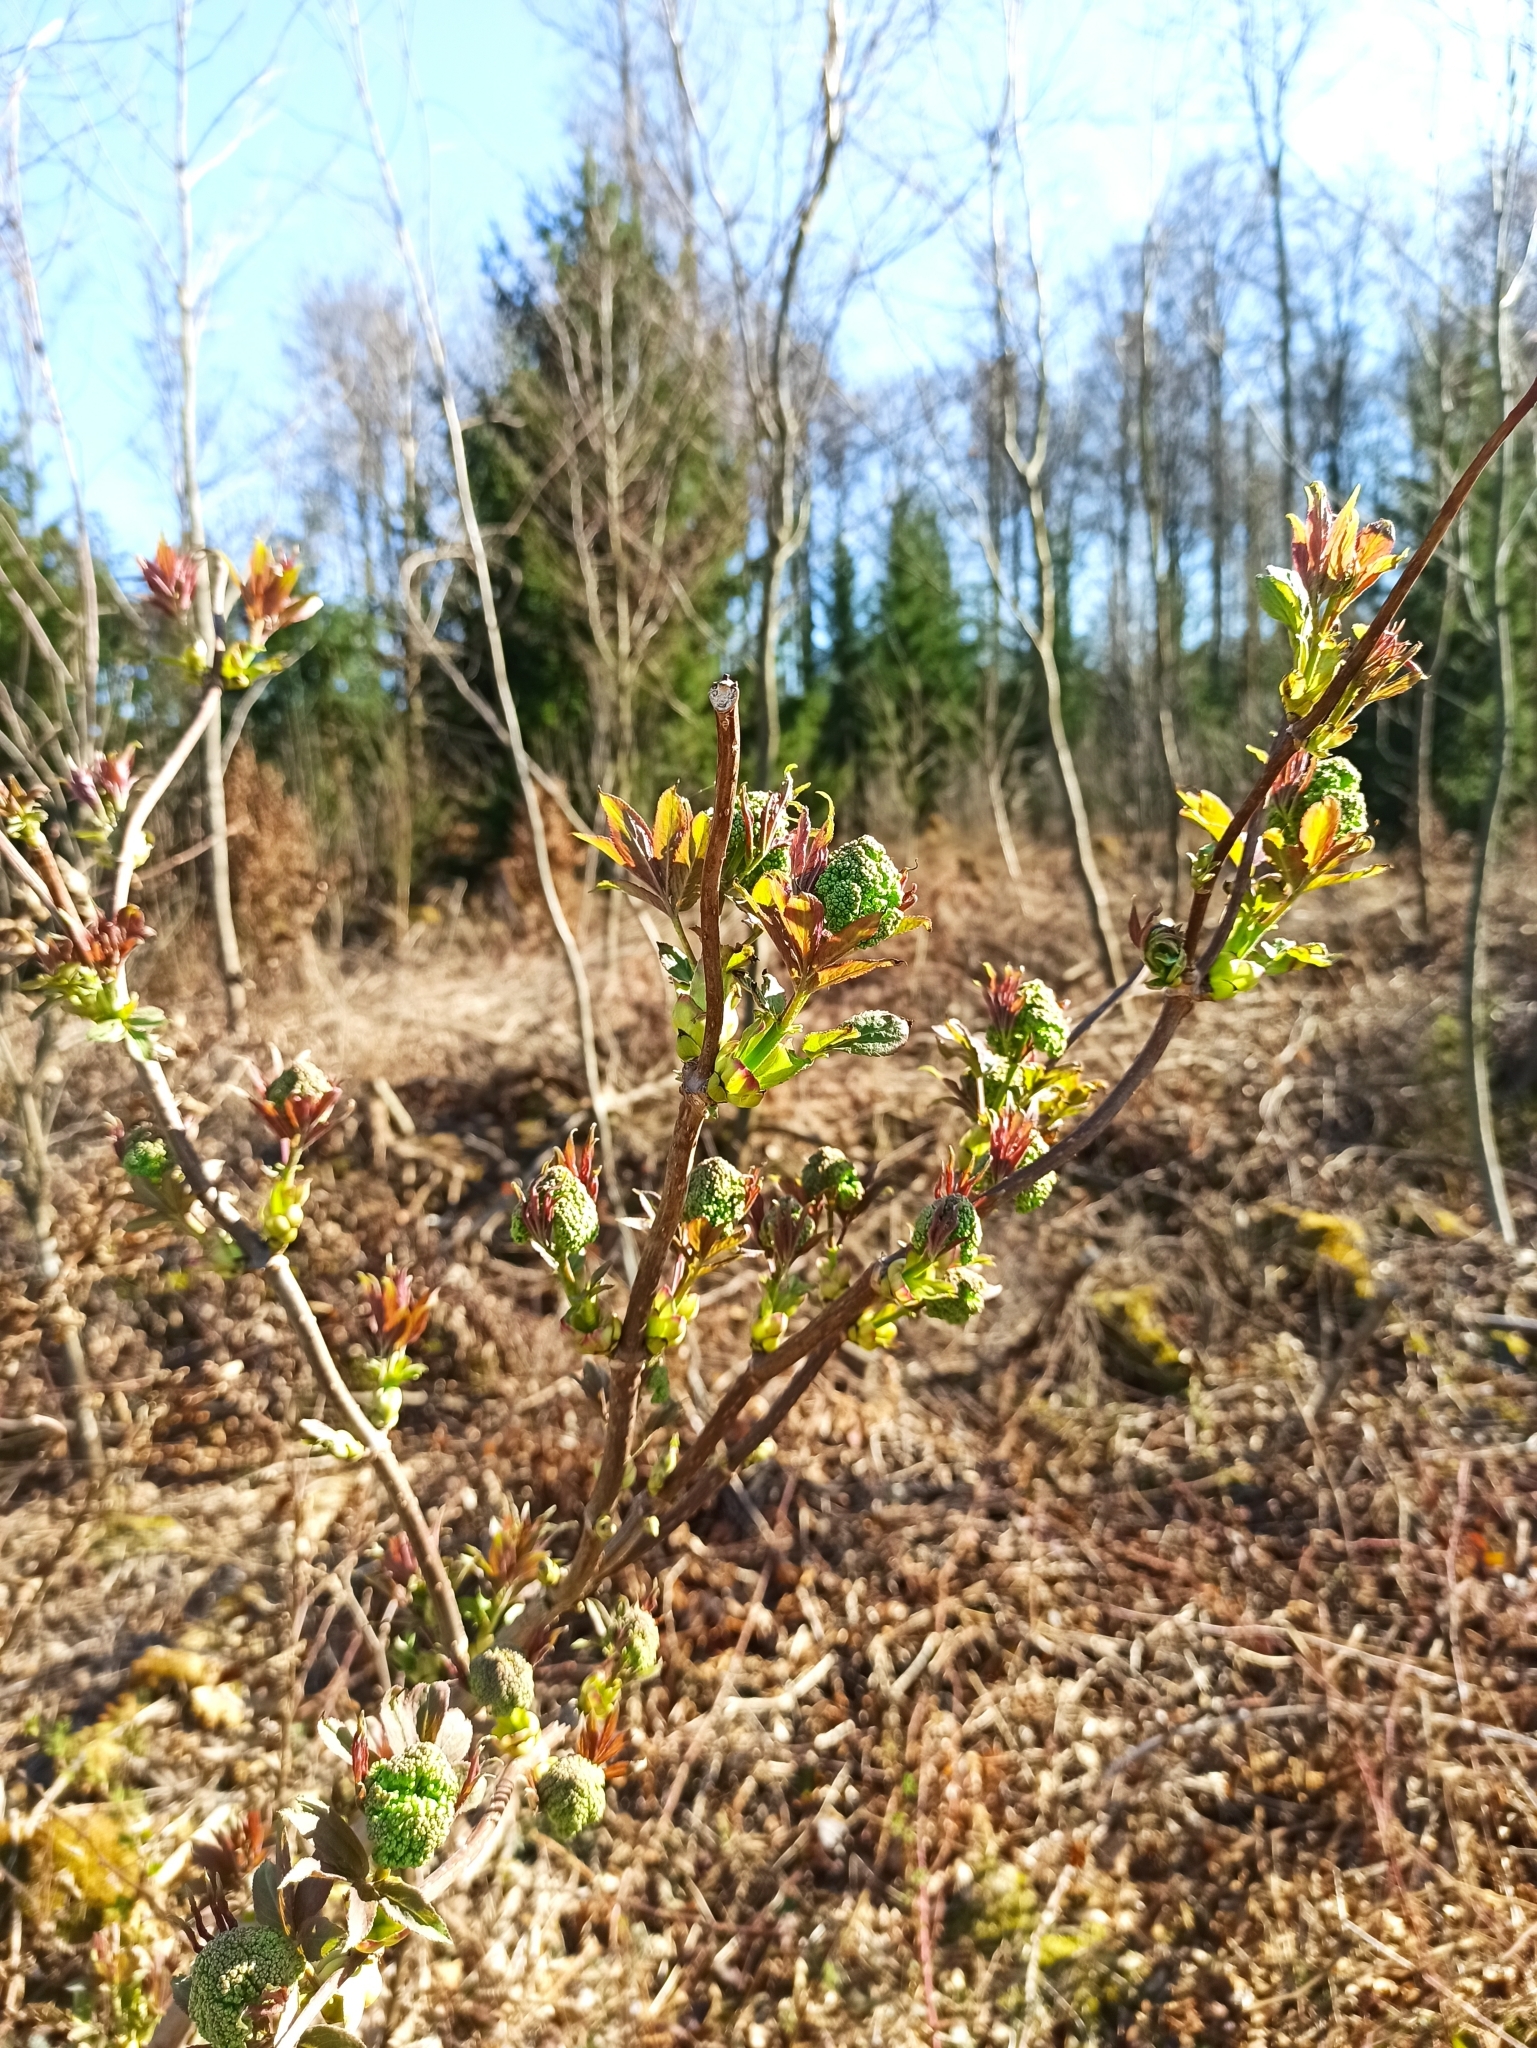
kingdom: Plantae
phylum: Tracheophyta
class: Magnoliopsida
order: Dipsacales
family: Viburnaceae
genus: Sambucus
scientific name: Sambucus racemosa
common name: Red-berried elder
